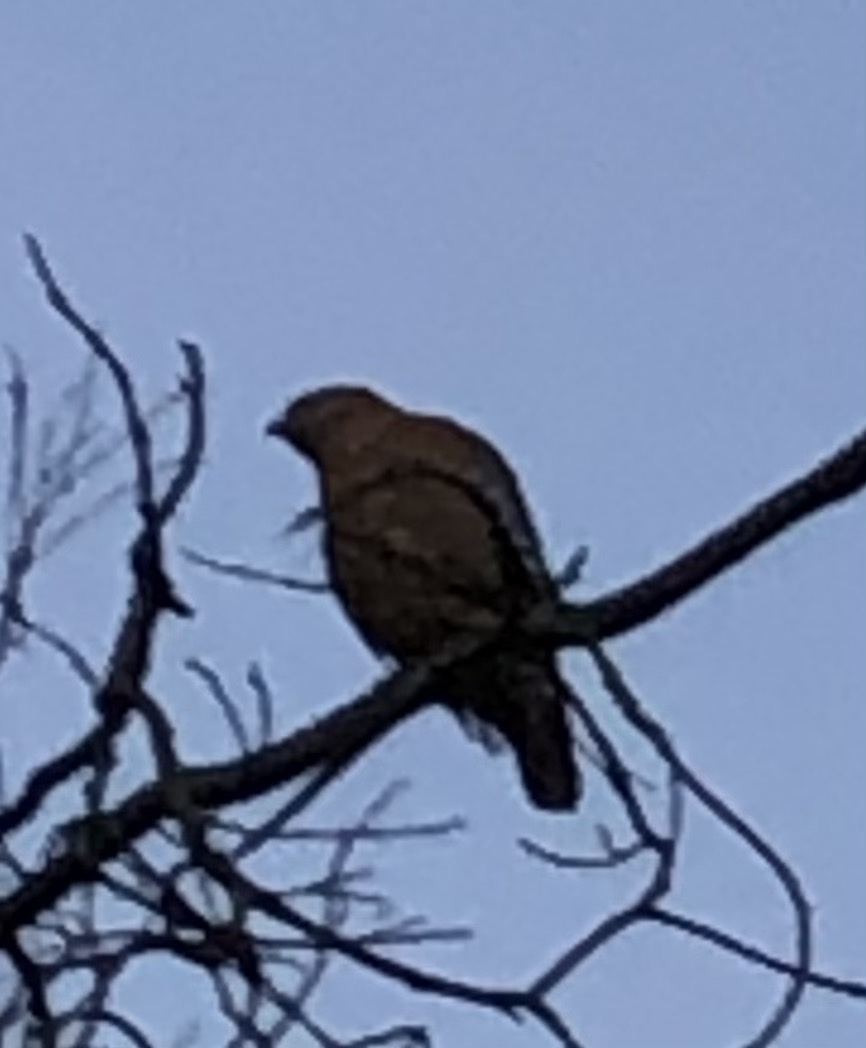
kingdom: Animalia
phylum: Chordata
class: Aves
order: Accipitriformes
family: Accipitridae
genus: Buteo
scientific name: Buteo lineatus
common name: Red-shouldered hawk
